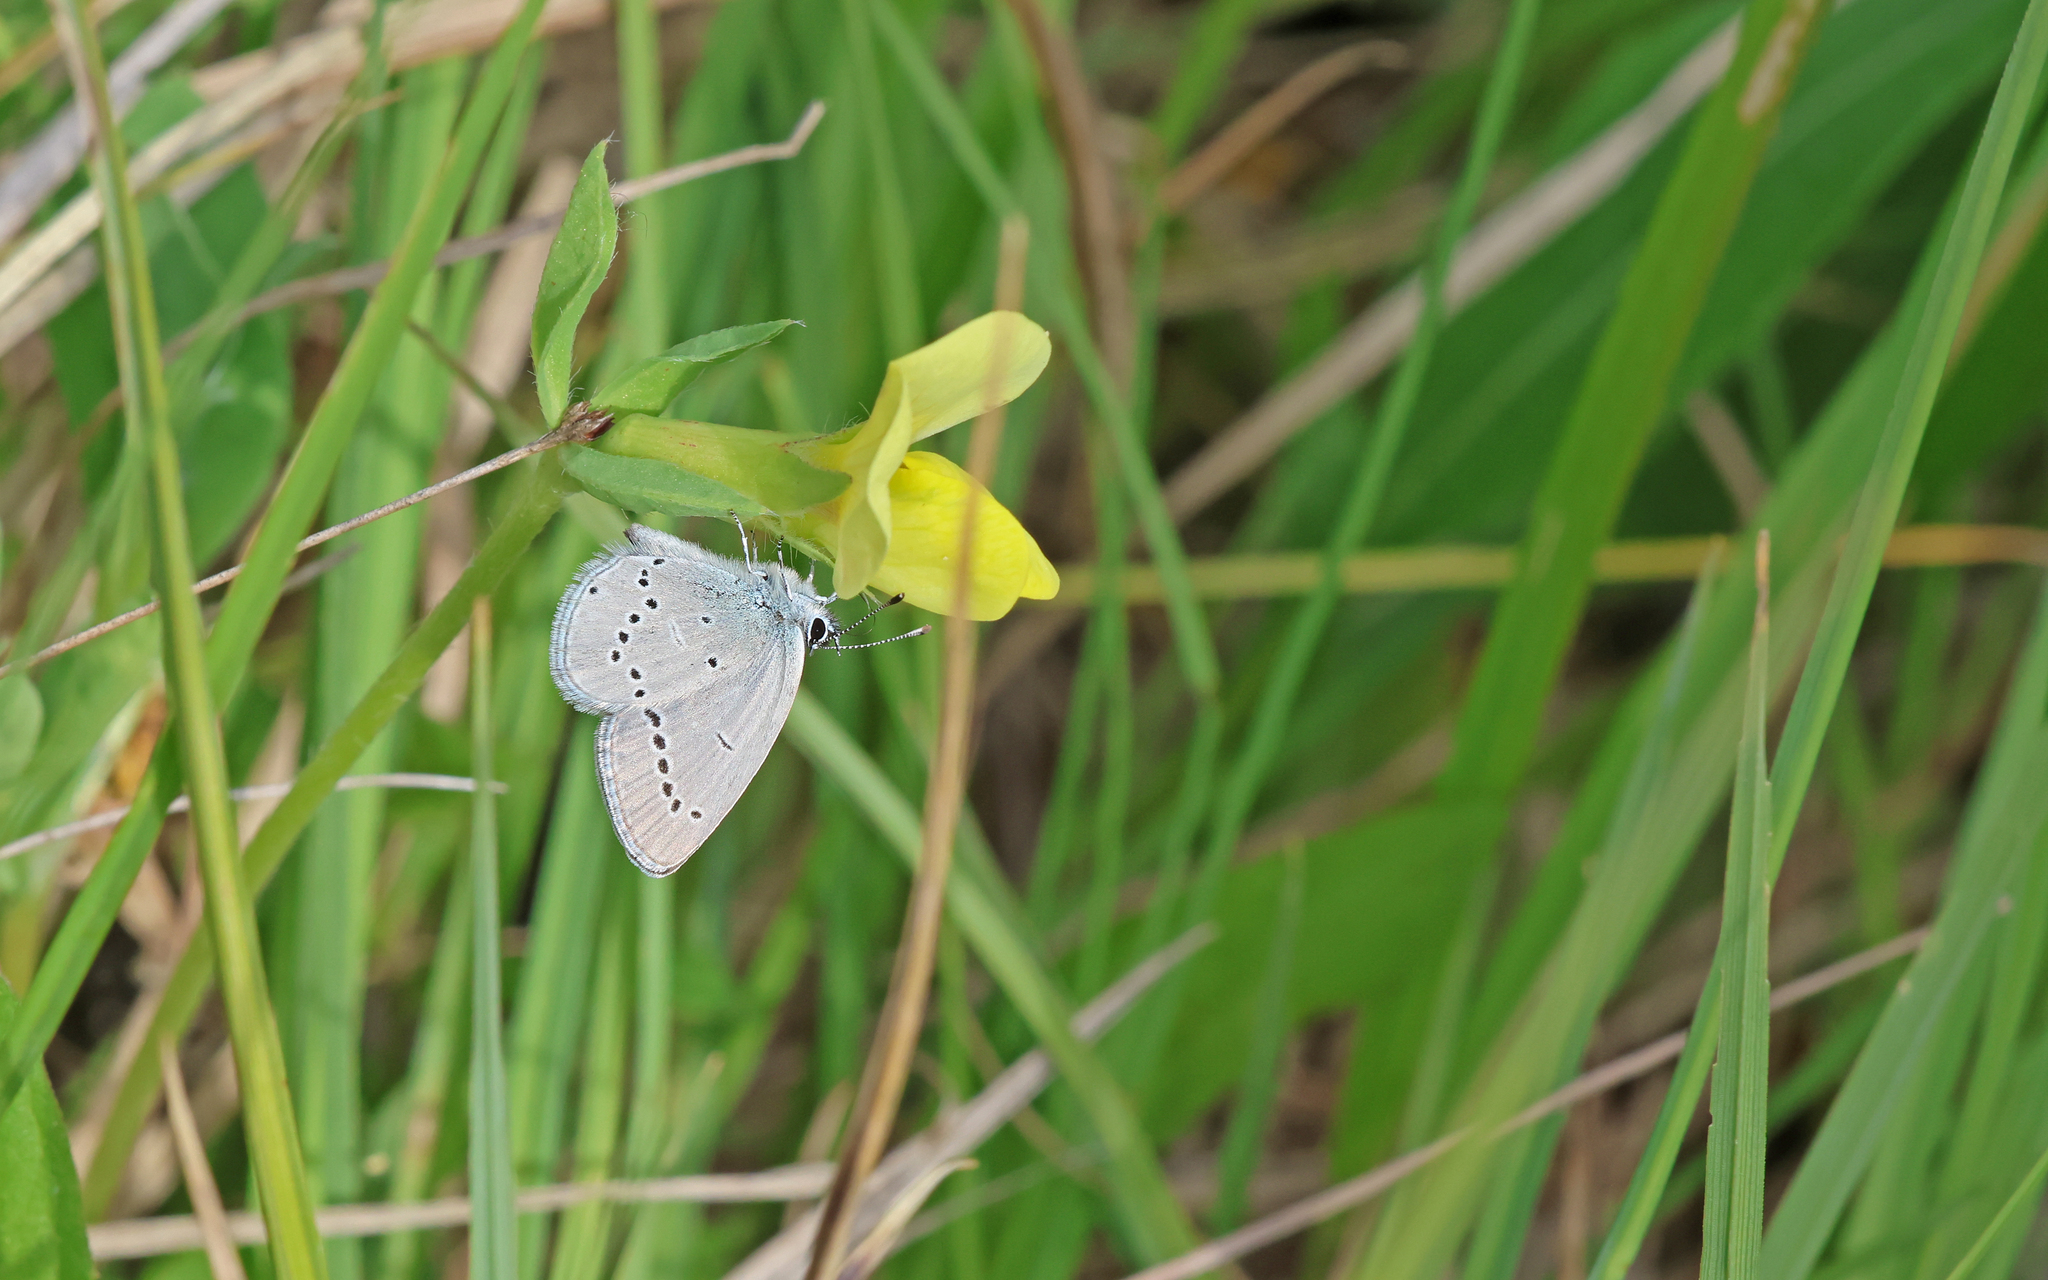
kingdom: Animalia
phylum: Arthropoda
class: Insecta
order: Lepidoptera
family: Lycaenidae
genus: Cupido
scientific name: Cupido minimus
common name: Small blue
